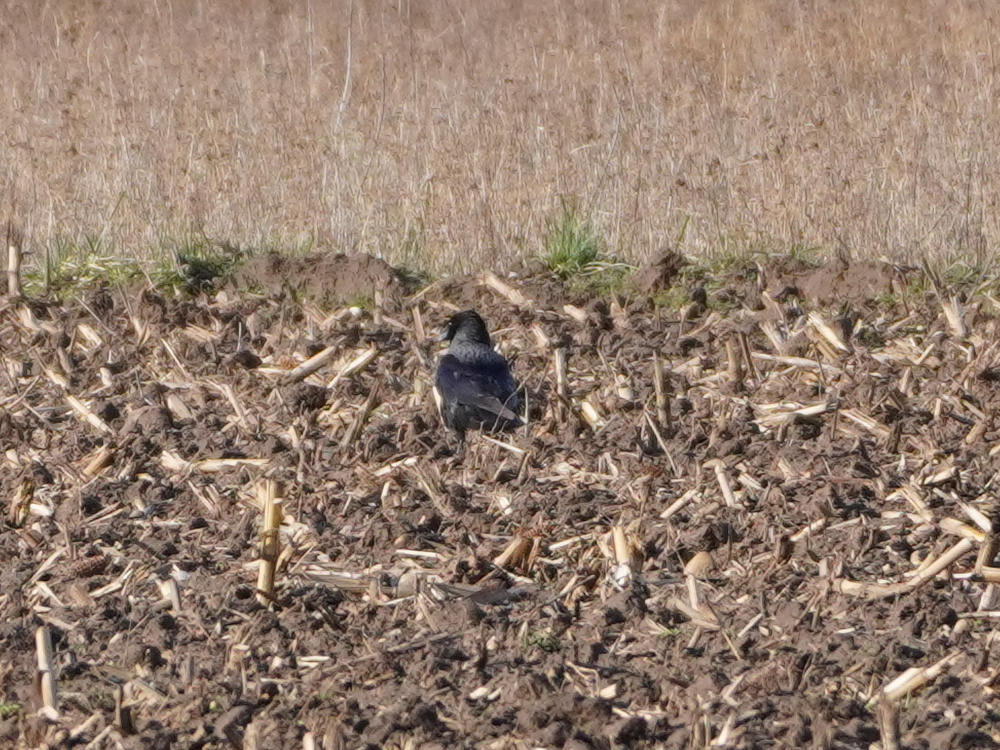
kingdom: Animalia
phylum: Chordata
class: Aves
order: Passeriformes
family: Corvidae
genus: Corvus
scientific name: Corvus
